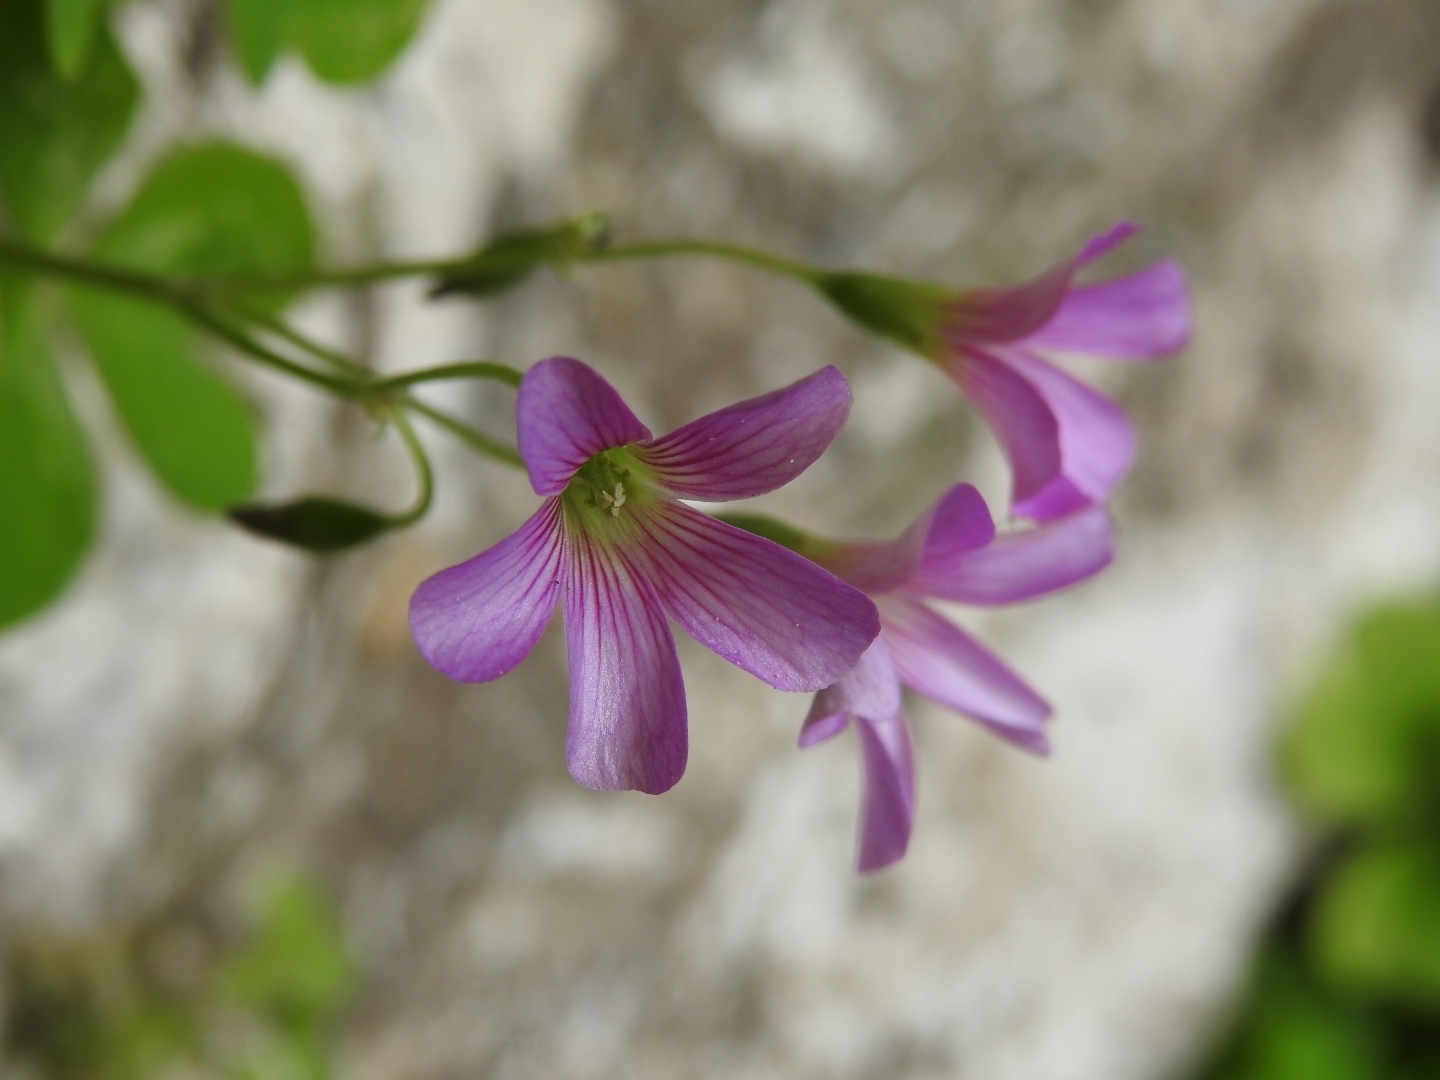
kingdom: Plantae
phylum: Tracheophyta
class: Magnoliopsida
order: Oxalidales
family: Oxalidaceae
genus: Oxalis
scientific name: Oxalis debilis
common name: Large-flowered pink-sorrel
